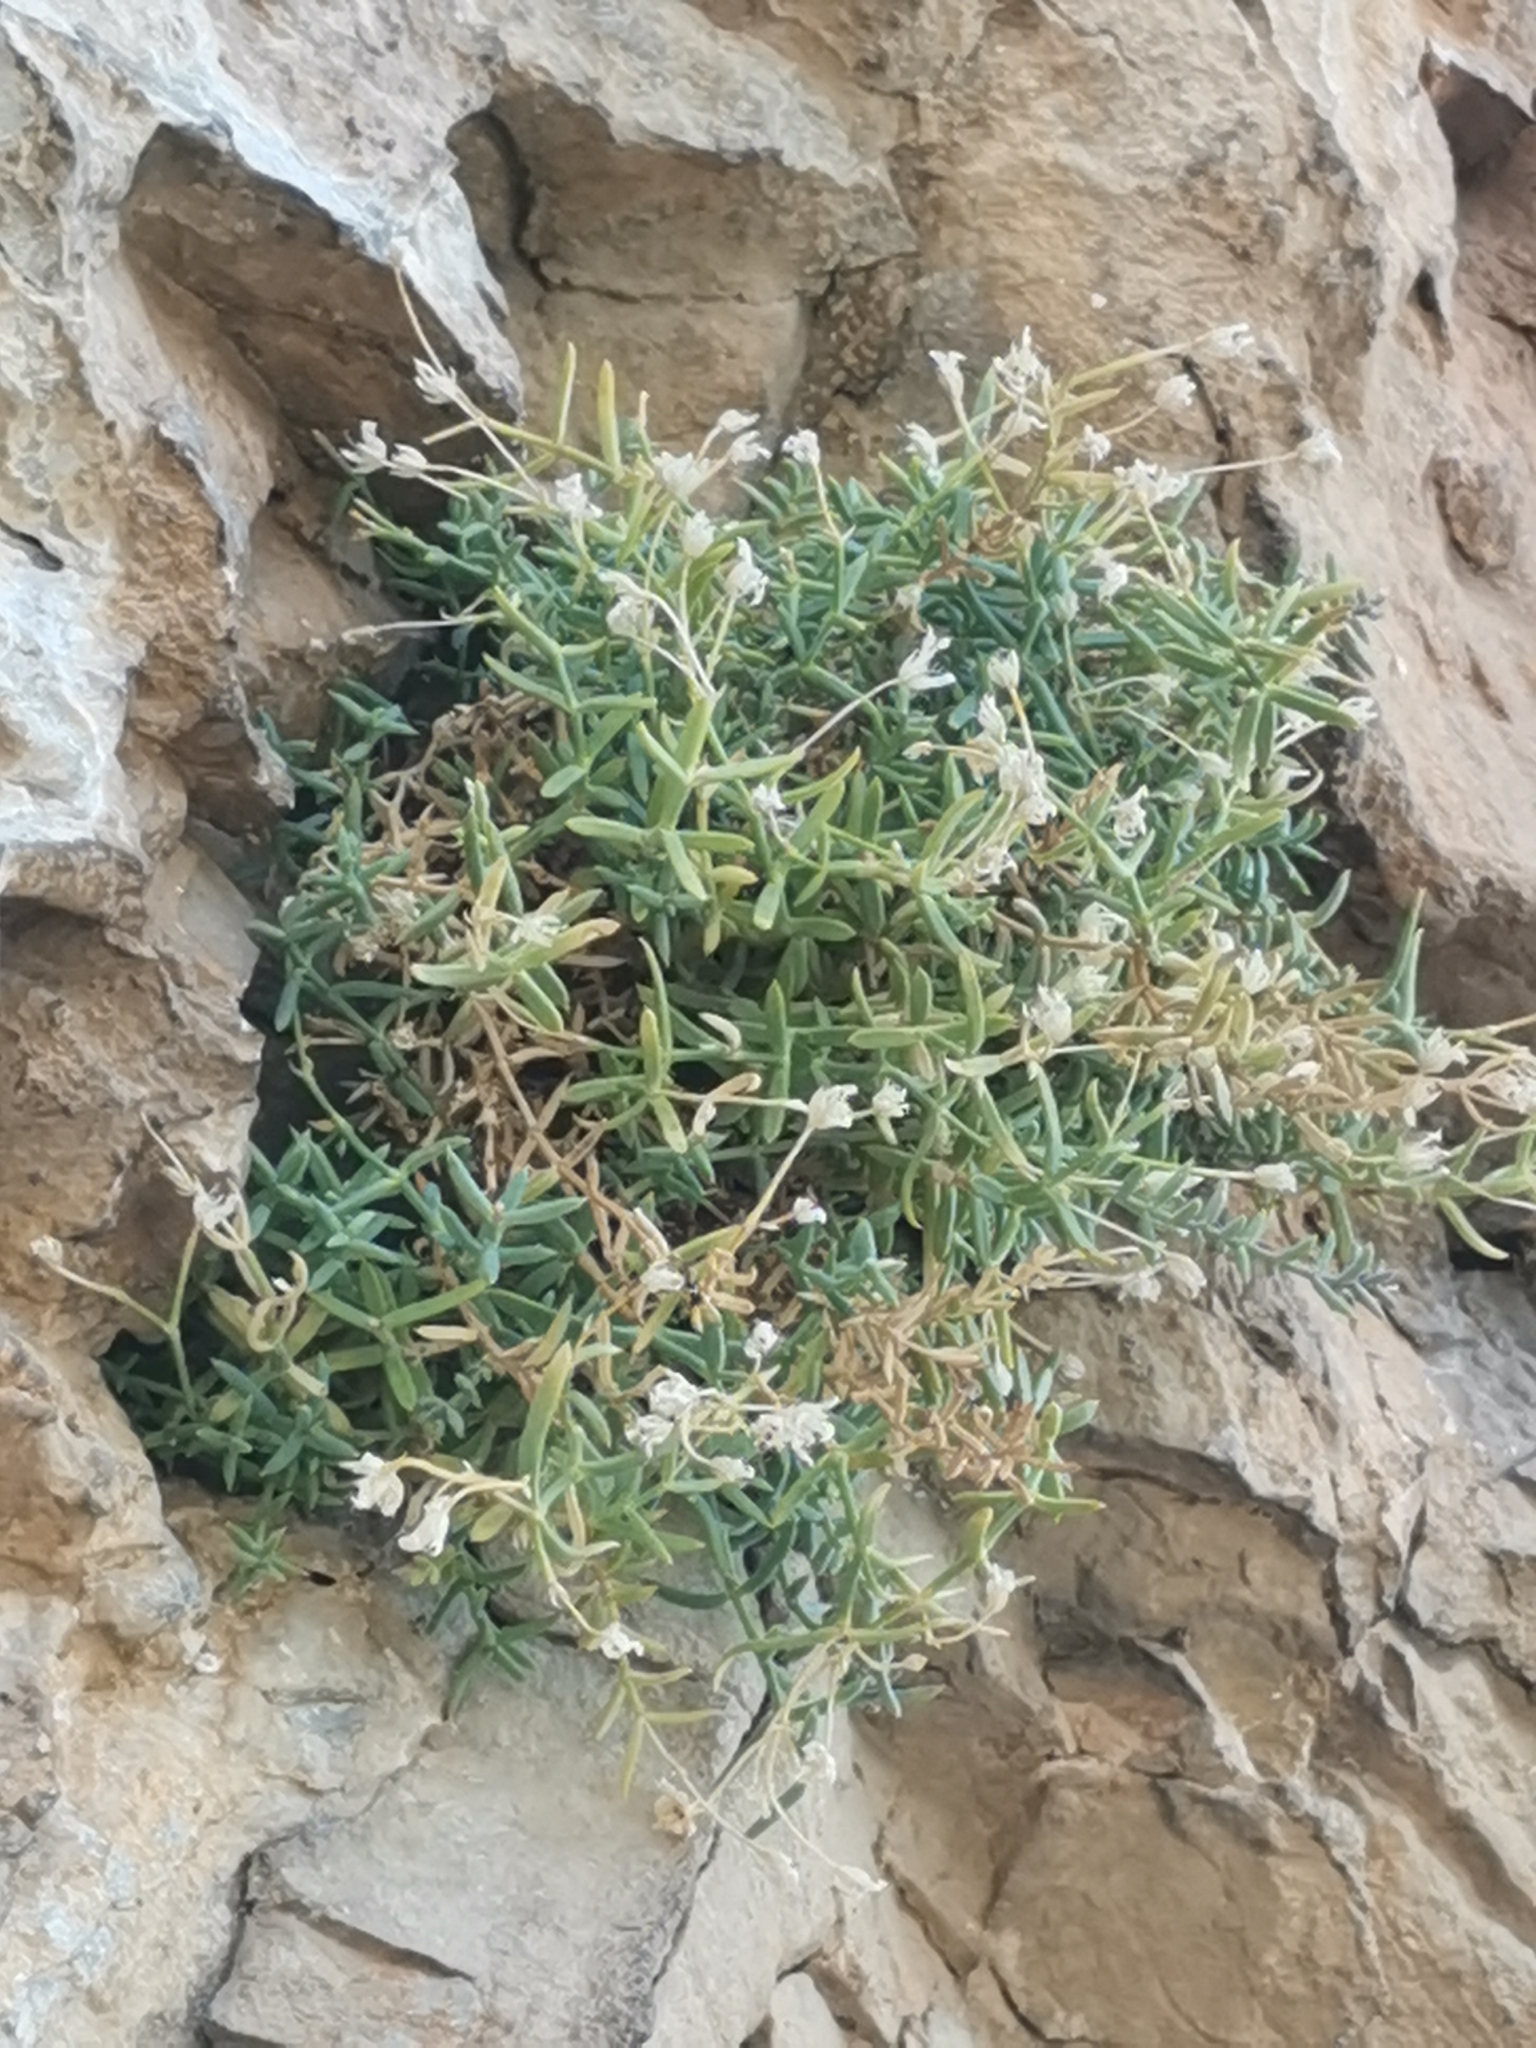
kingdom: Plantae
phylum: Tracheophyta
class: Magnoliopsida
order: Caryophyllales
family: Caryophyllaceae
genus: Moehringia
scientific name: Moehringia tommasinii
